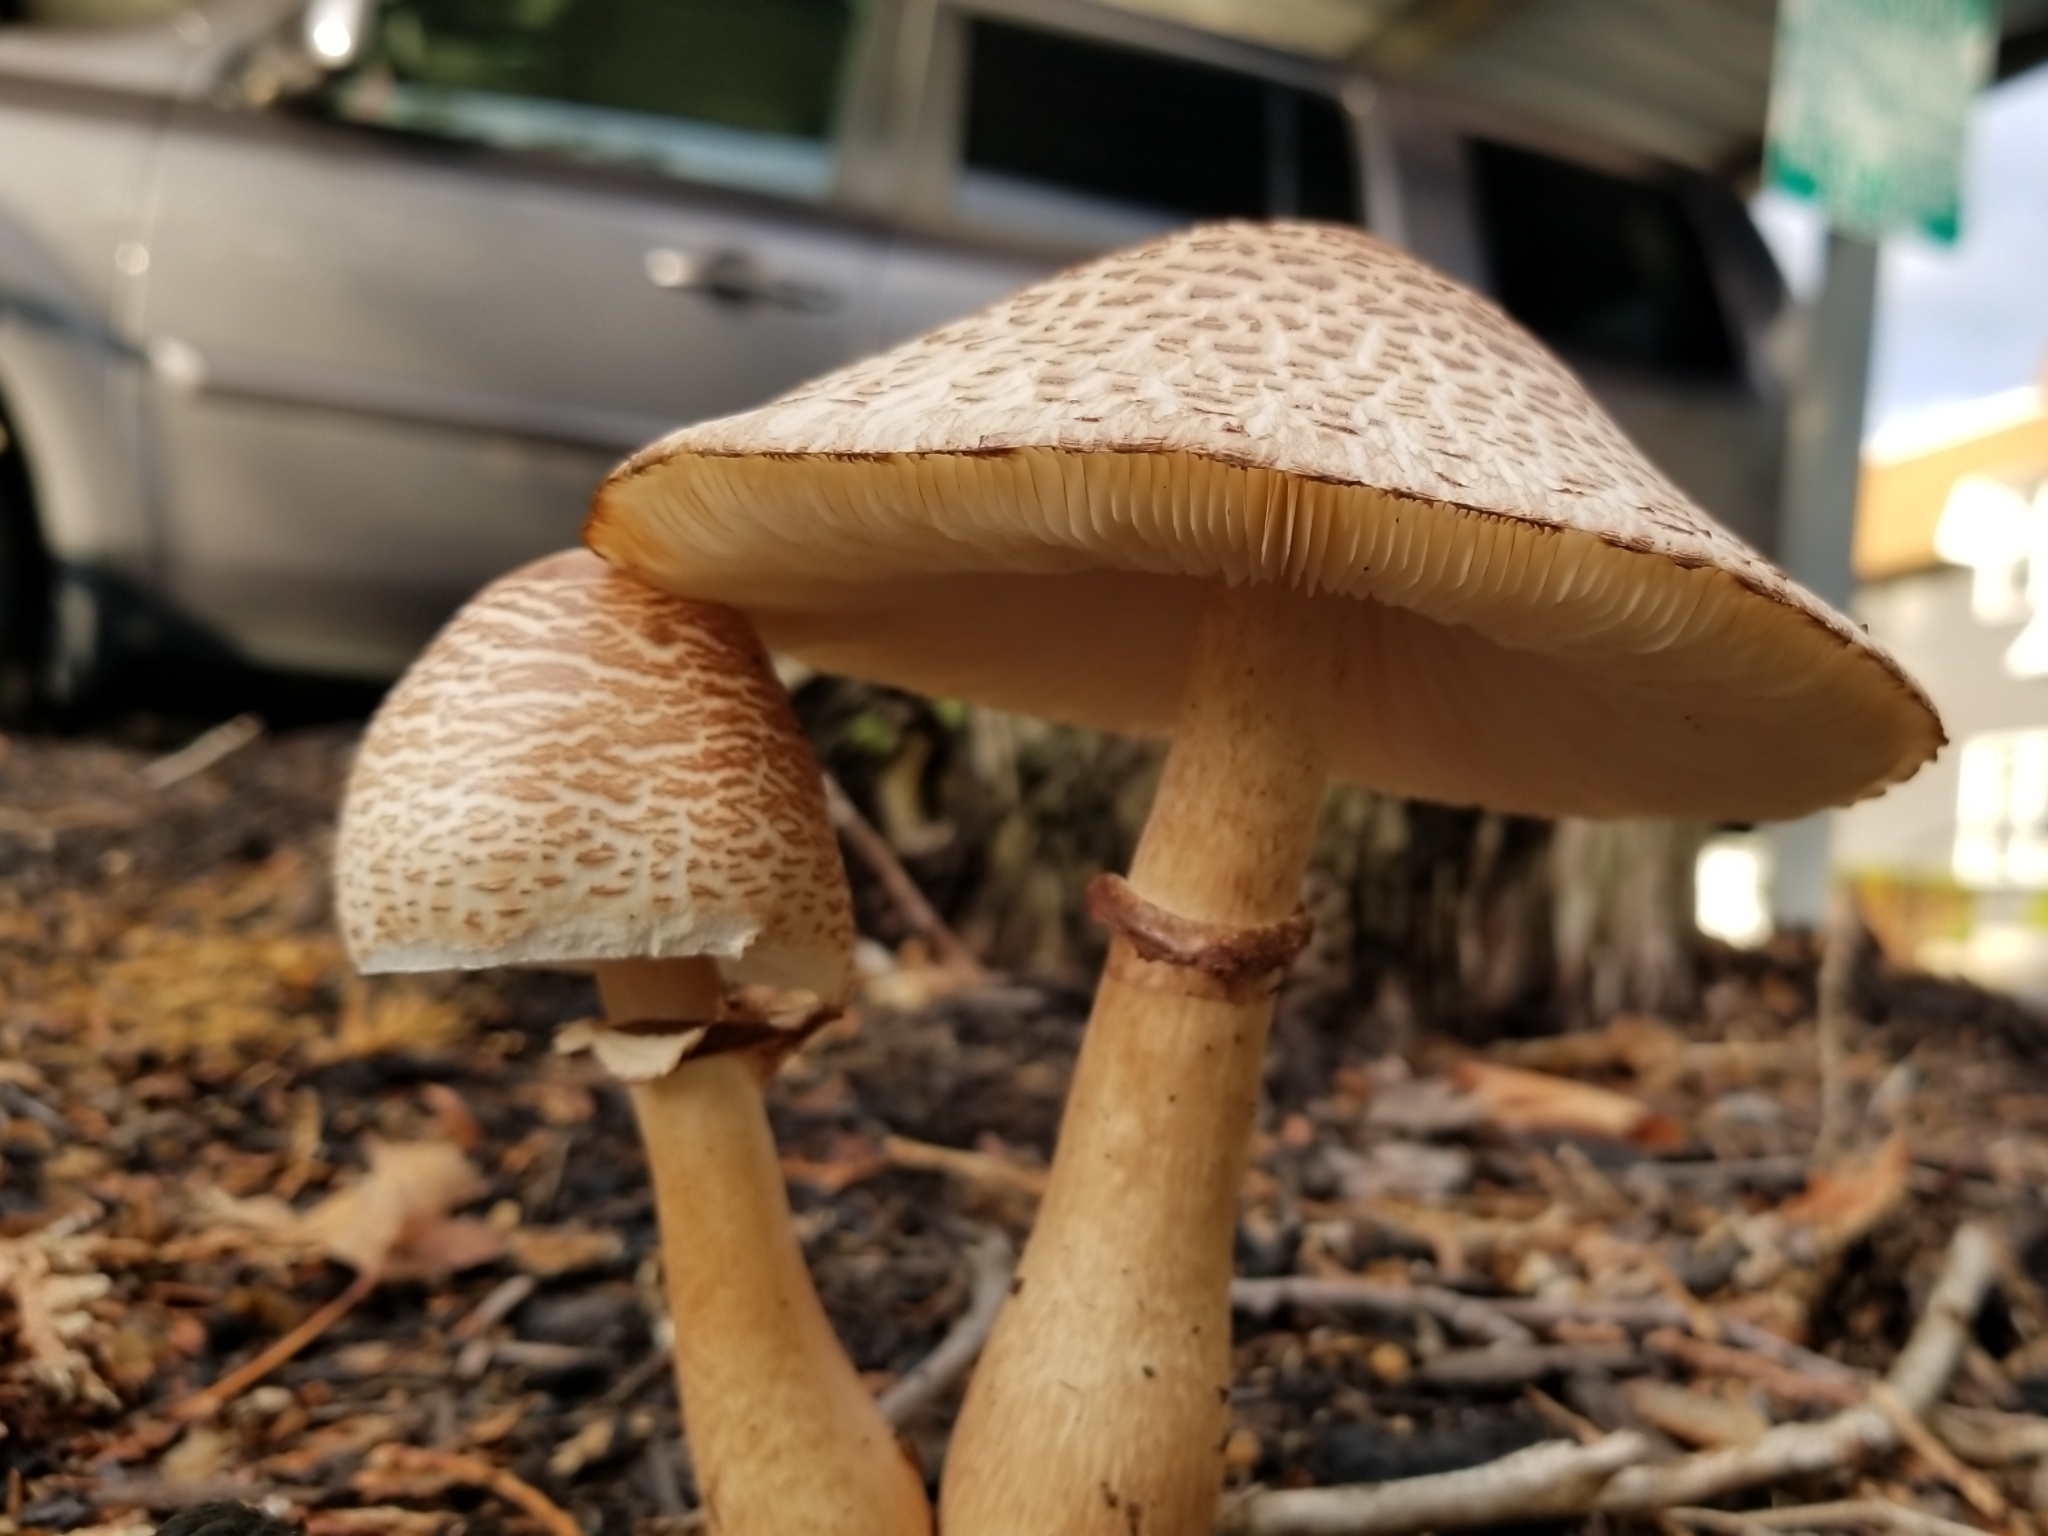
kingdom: Fungi
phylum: Basidiomycota
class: Agaricomycetes
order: Agaricales
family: Agaricaceae
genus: Leucoagaricus
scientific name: Leucoagaricus americanus
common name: Reddening lepiota
